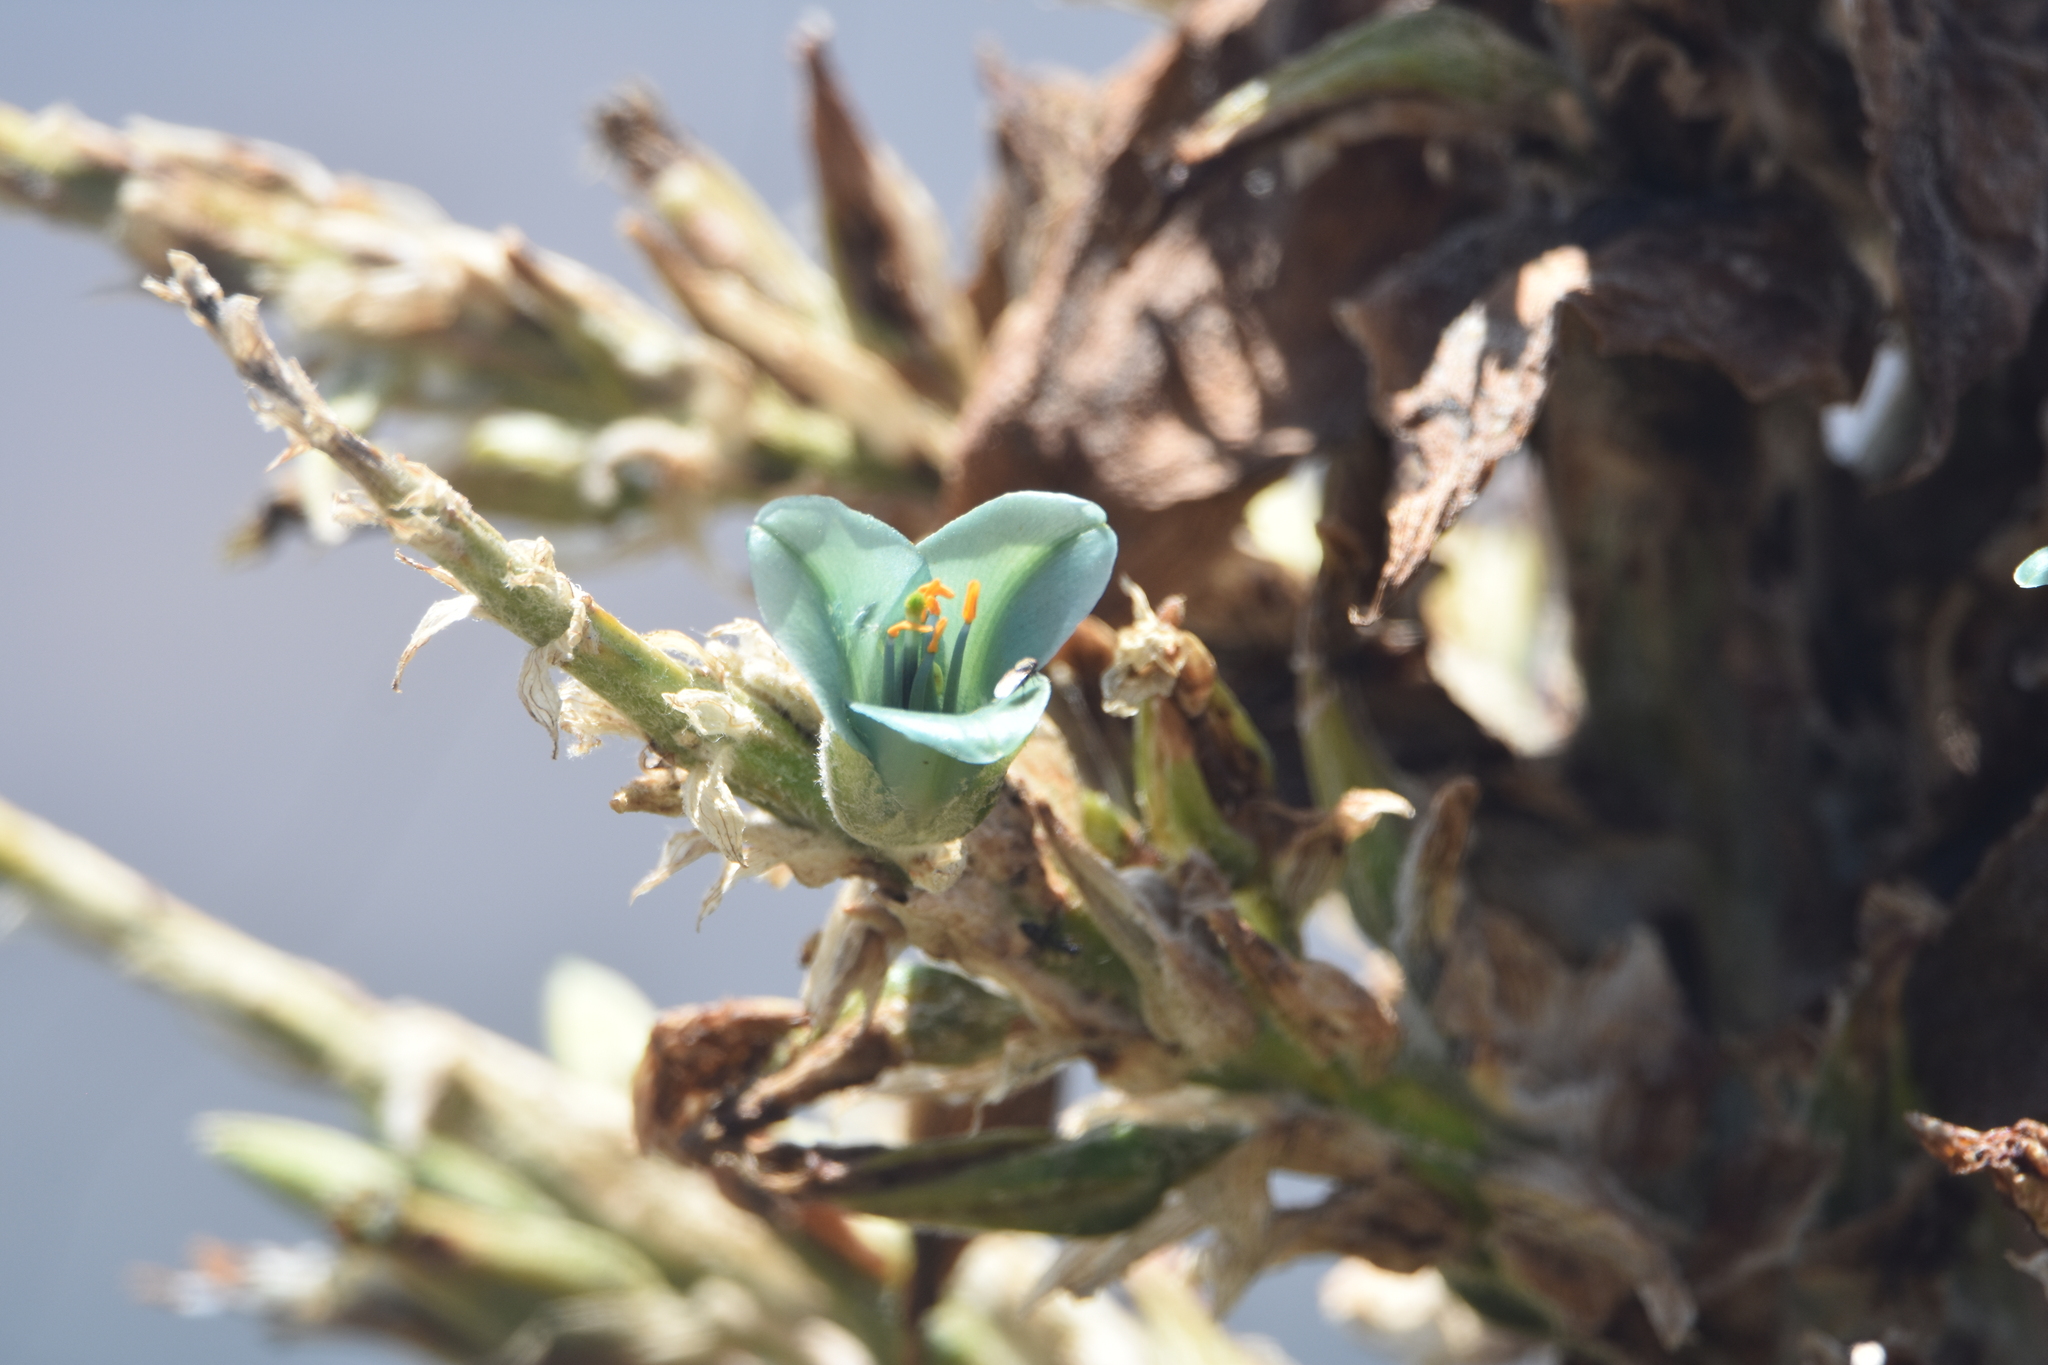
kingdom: Plantae
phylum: Tracheophyta
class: Liliopsida
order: Poales
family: Bromeliaceae
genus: Puya
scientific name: Puya alpestris
